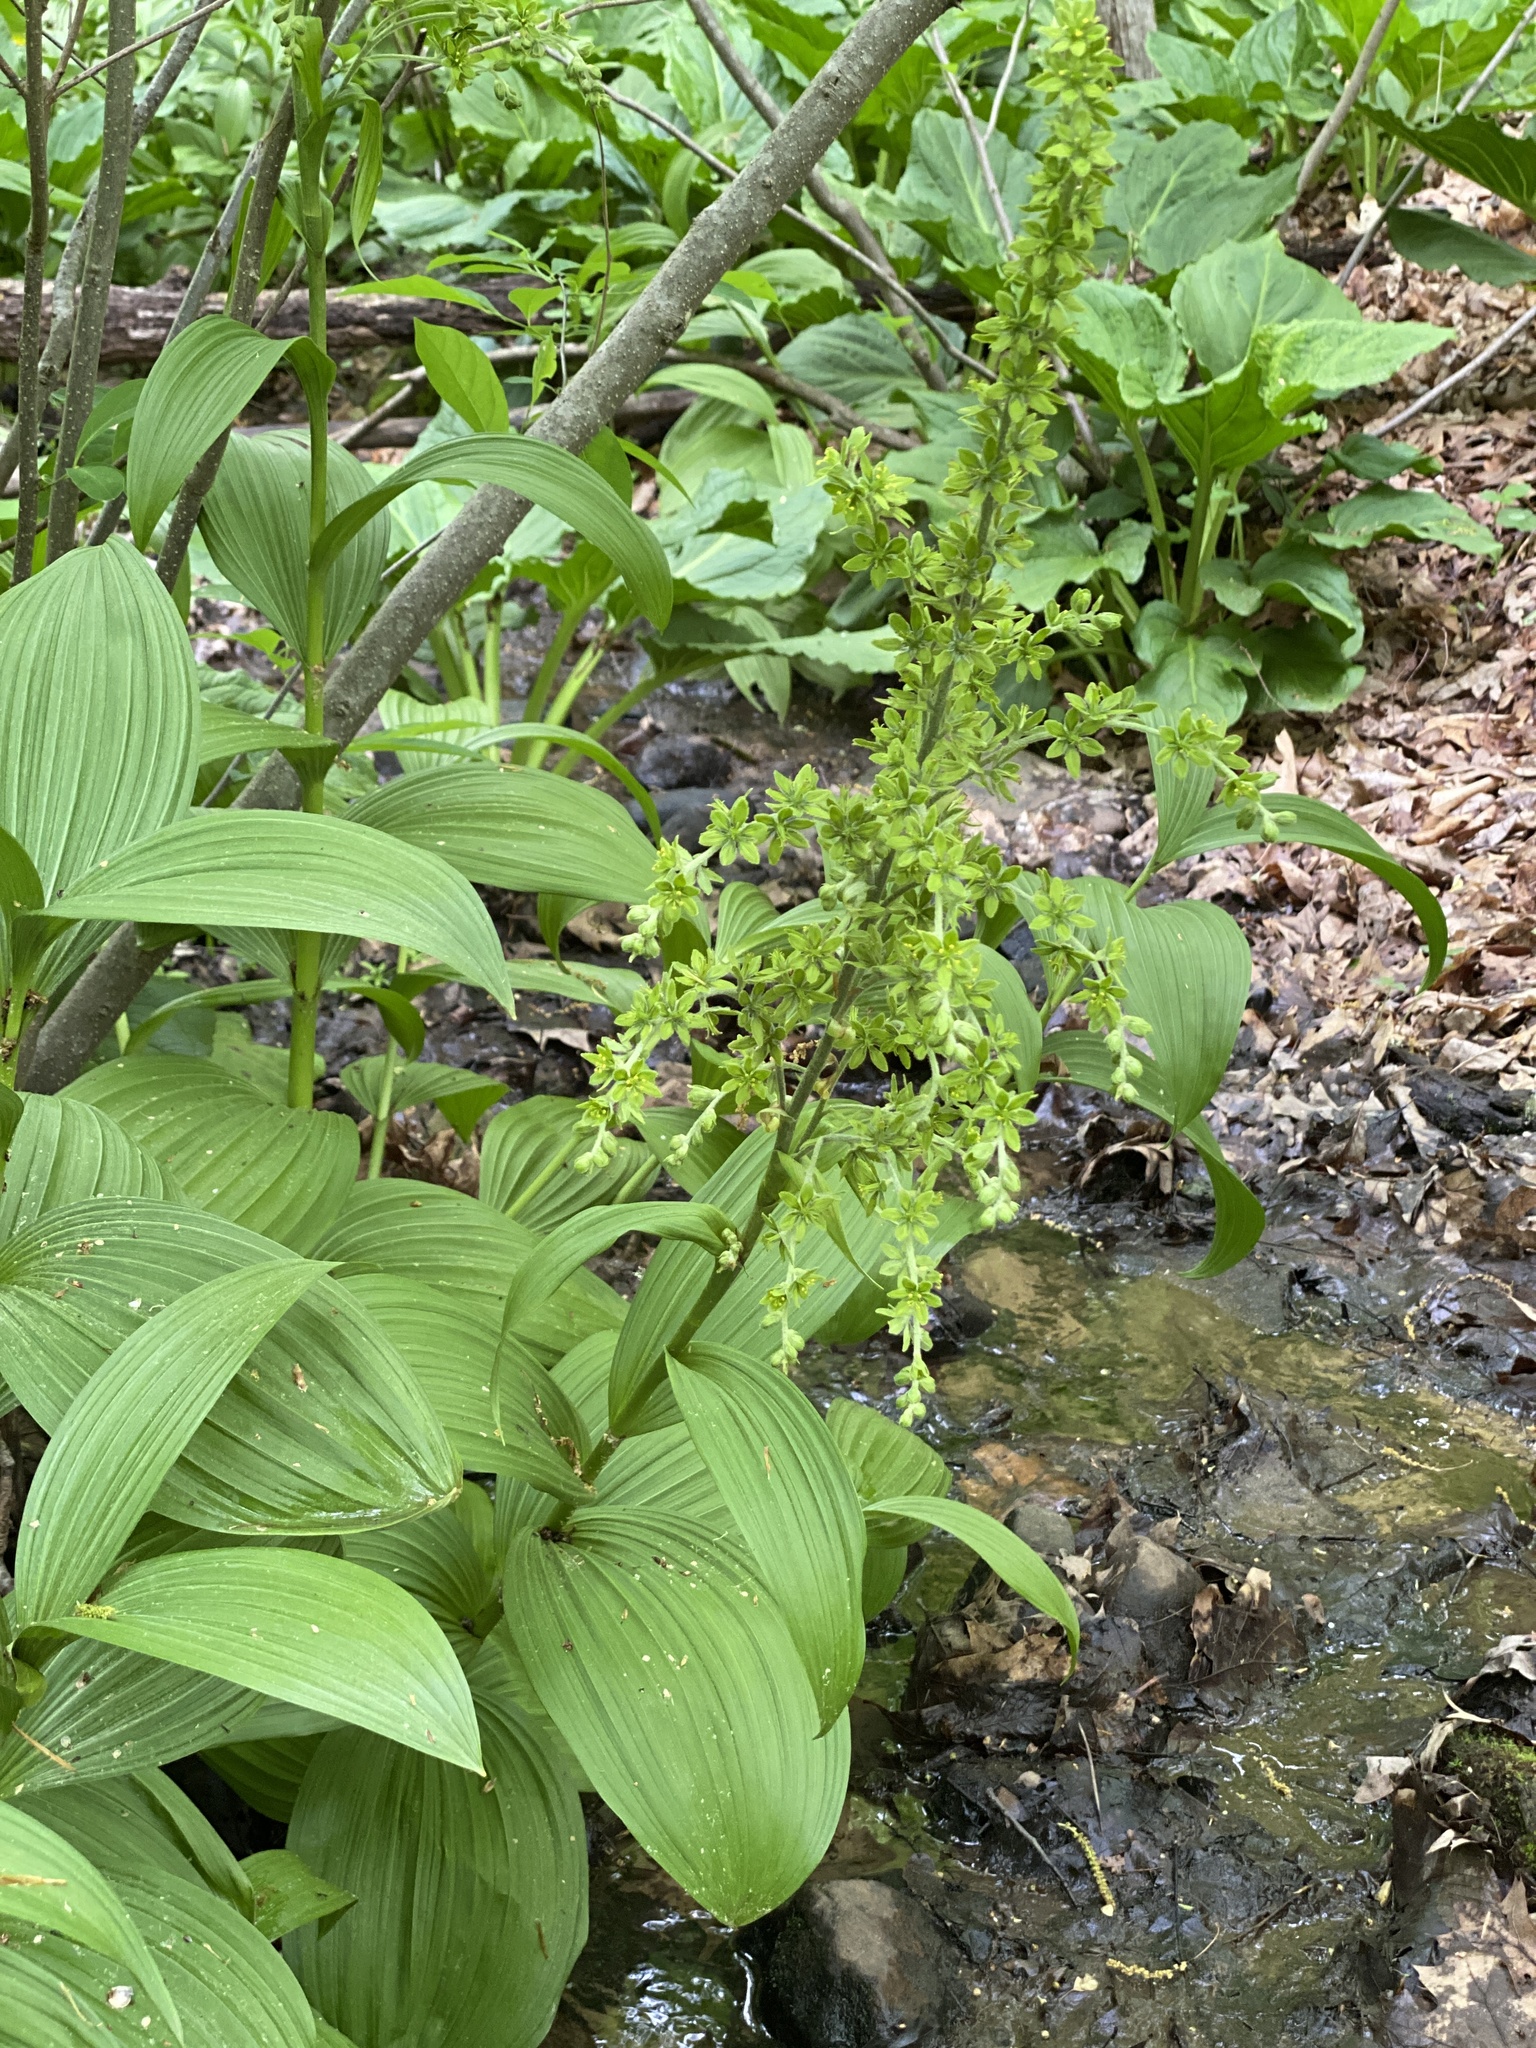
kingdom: Plantae
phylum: Tracheophyta
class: Liliopsida
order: Liliales
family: Melanthiaceae
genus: Veratrum
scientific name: Veratrum viride
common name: American false hellebore
